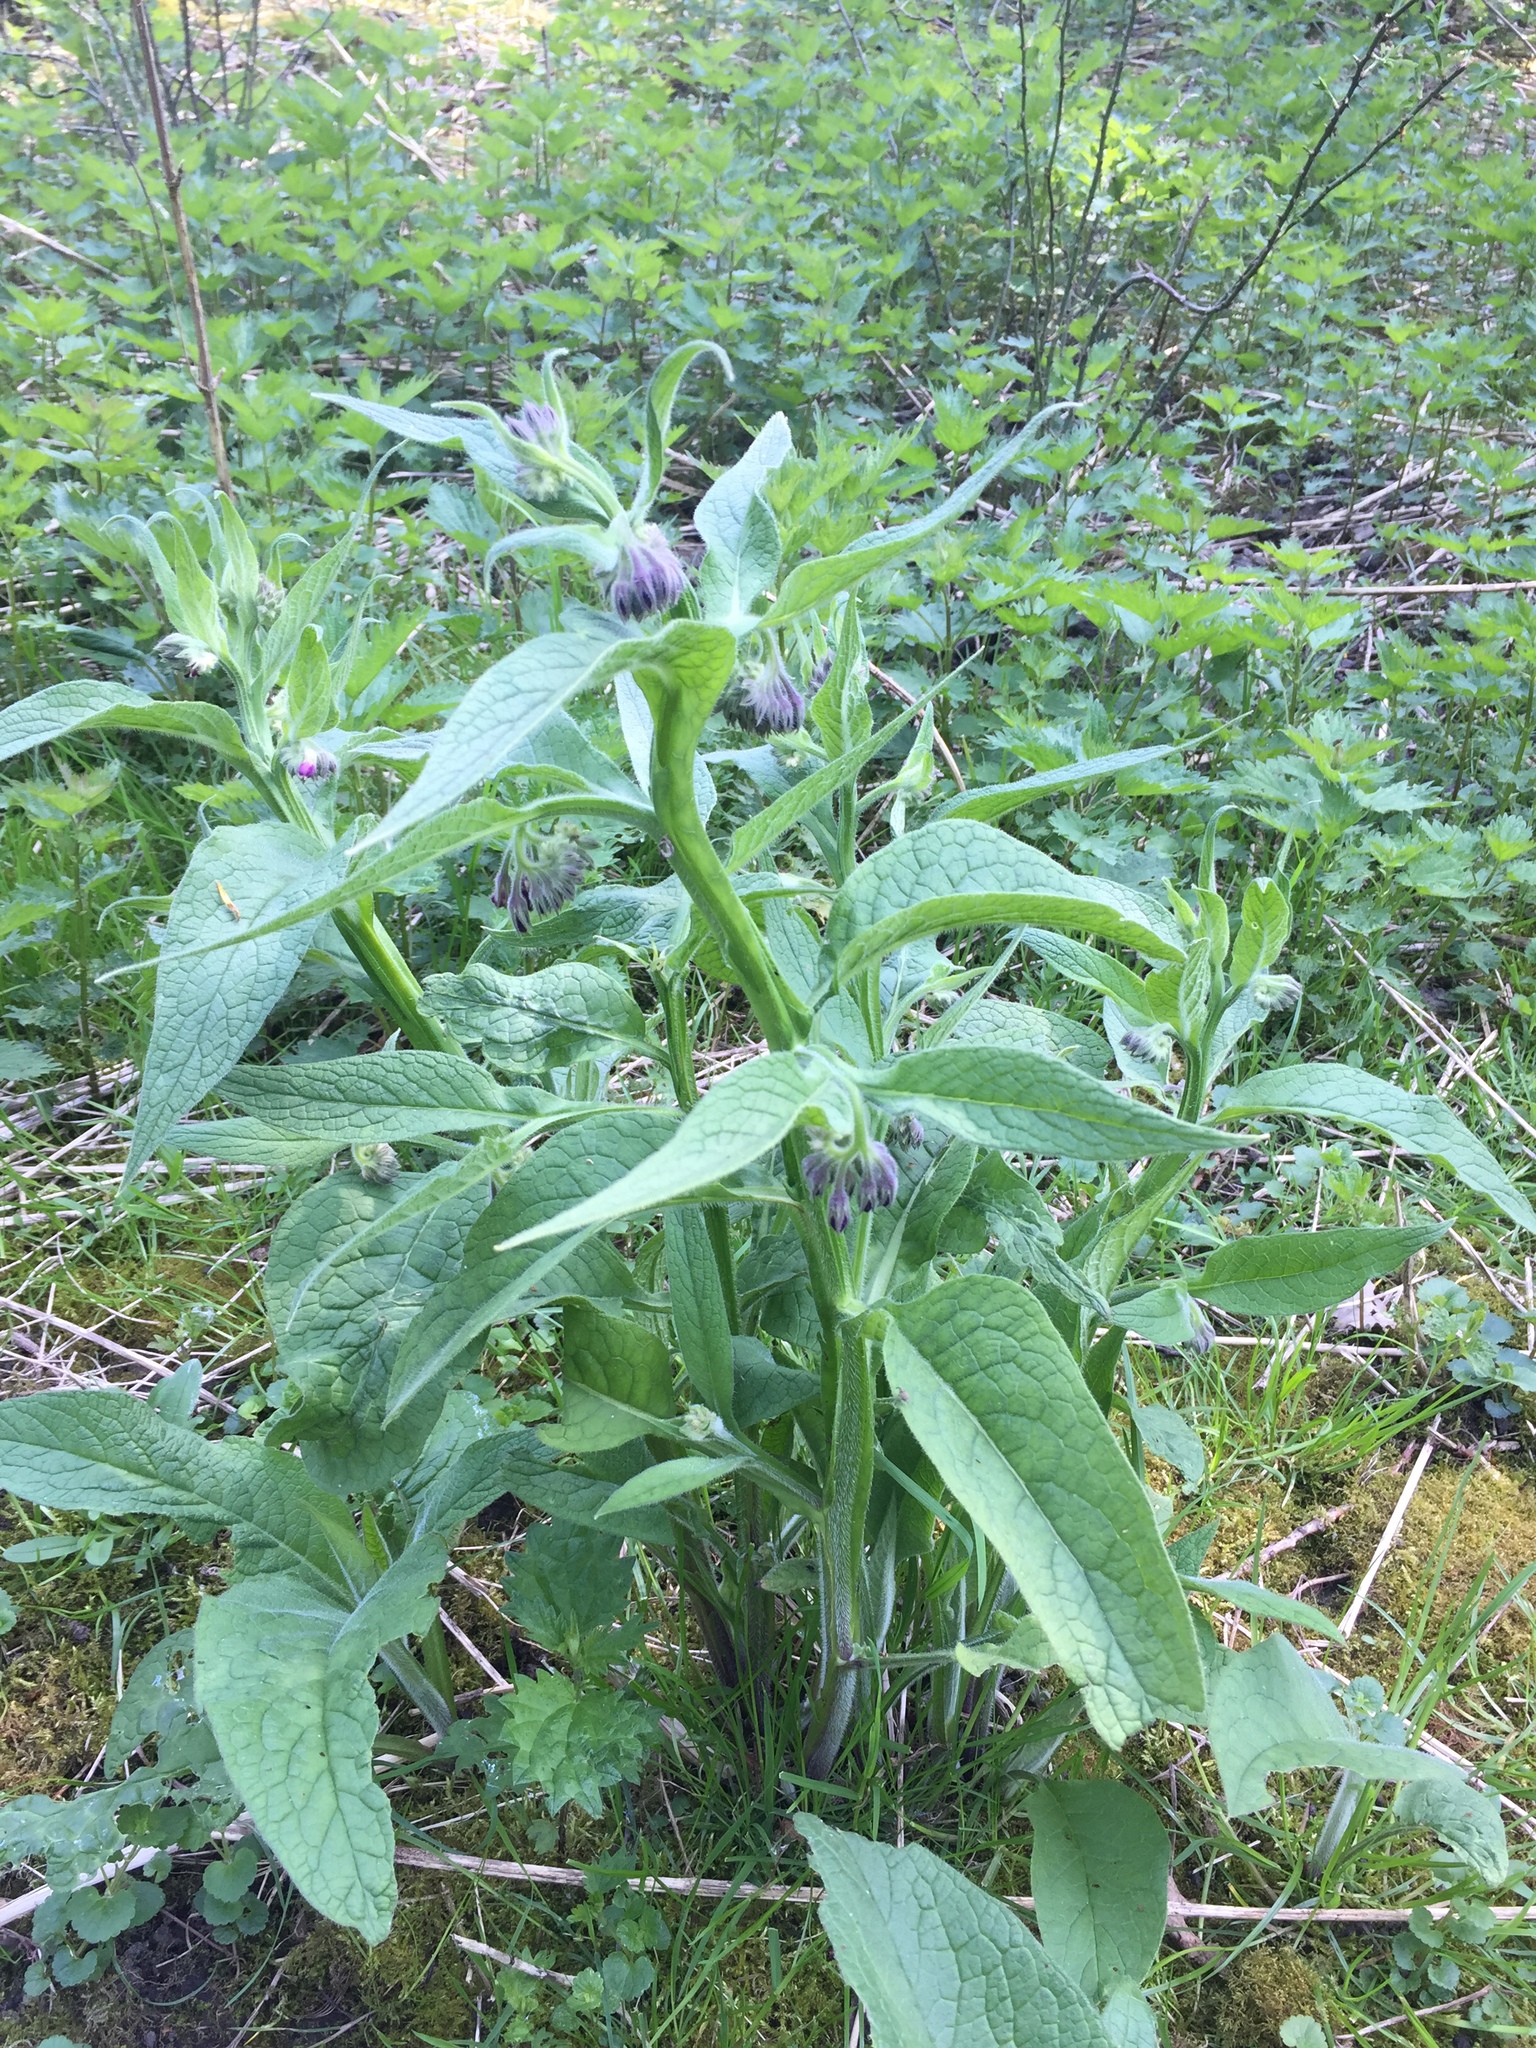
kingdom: Plantae
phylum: Tracheophyta
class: Magnoliopsida
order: Boraginales
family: Boraginaceae
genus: Symphytum
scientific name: Symphytum officinale
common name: Common comfrey
